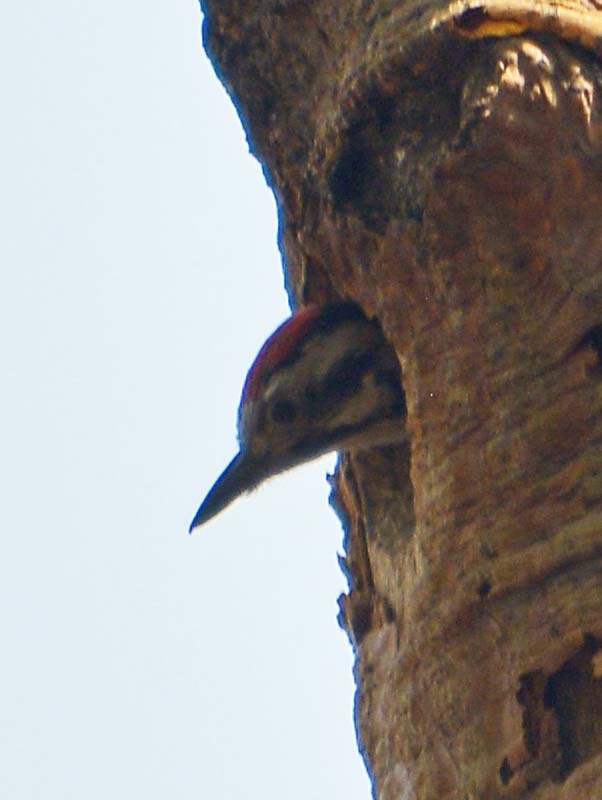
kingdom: Animalia
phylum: Chordata
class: Aves
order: Piciformes
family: Picidae
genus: Dryobates
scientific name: Dryobates scalaris
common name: Ladder-backed woodpecker
